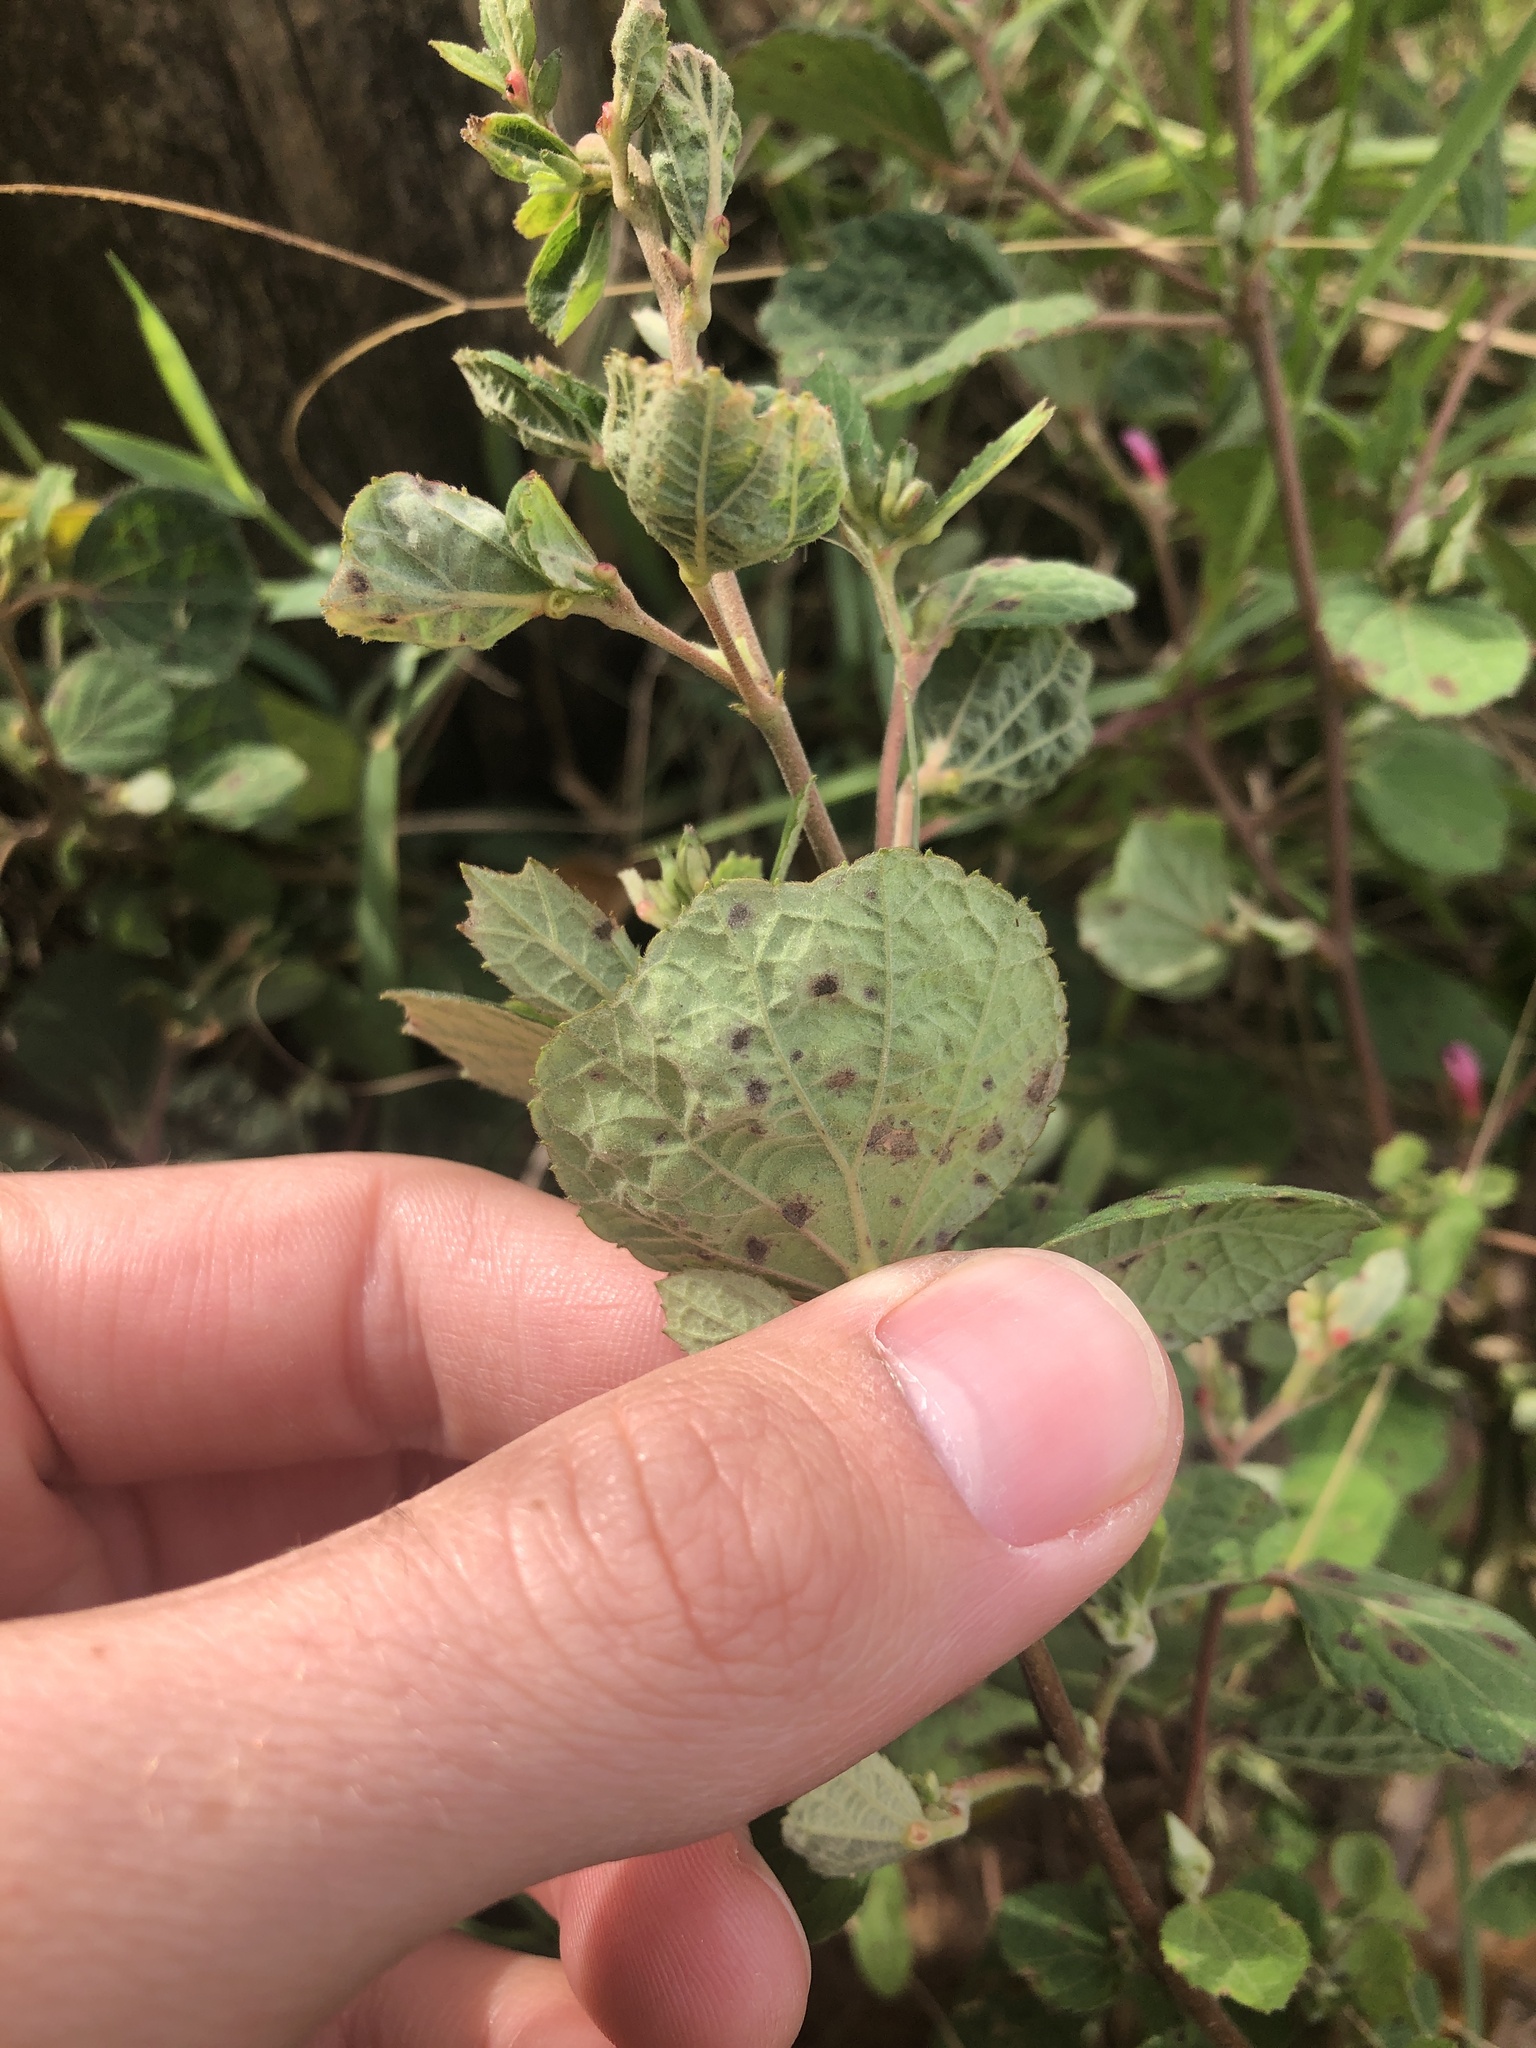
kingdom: Plantae
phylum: Tracheophyta
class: Magnoliopsida
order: Malvales
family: Malvaceae
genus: Urena
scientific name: Urena lobata
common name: Caesarweed
